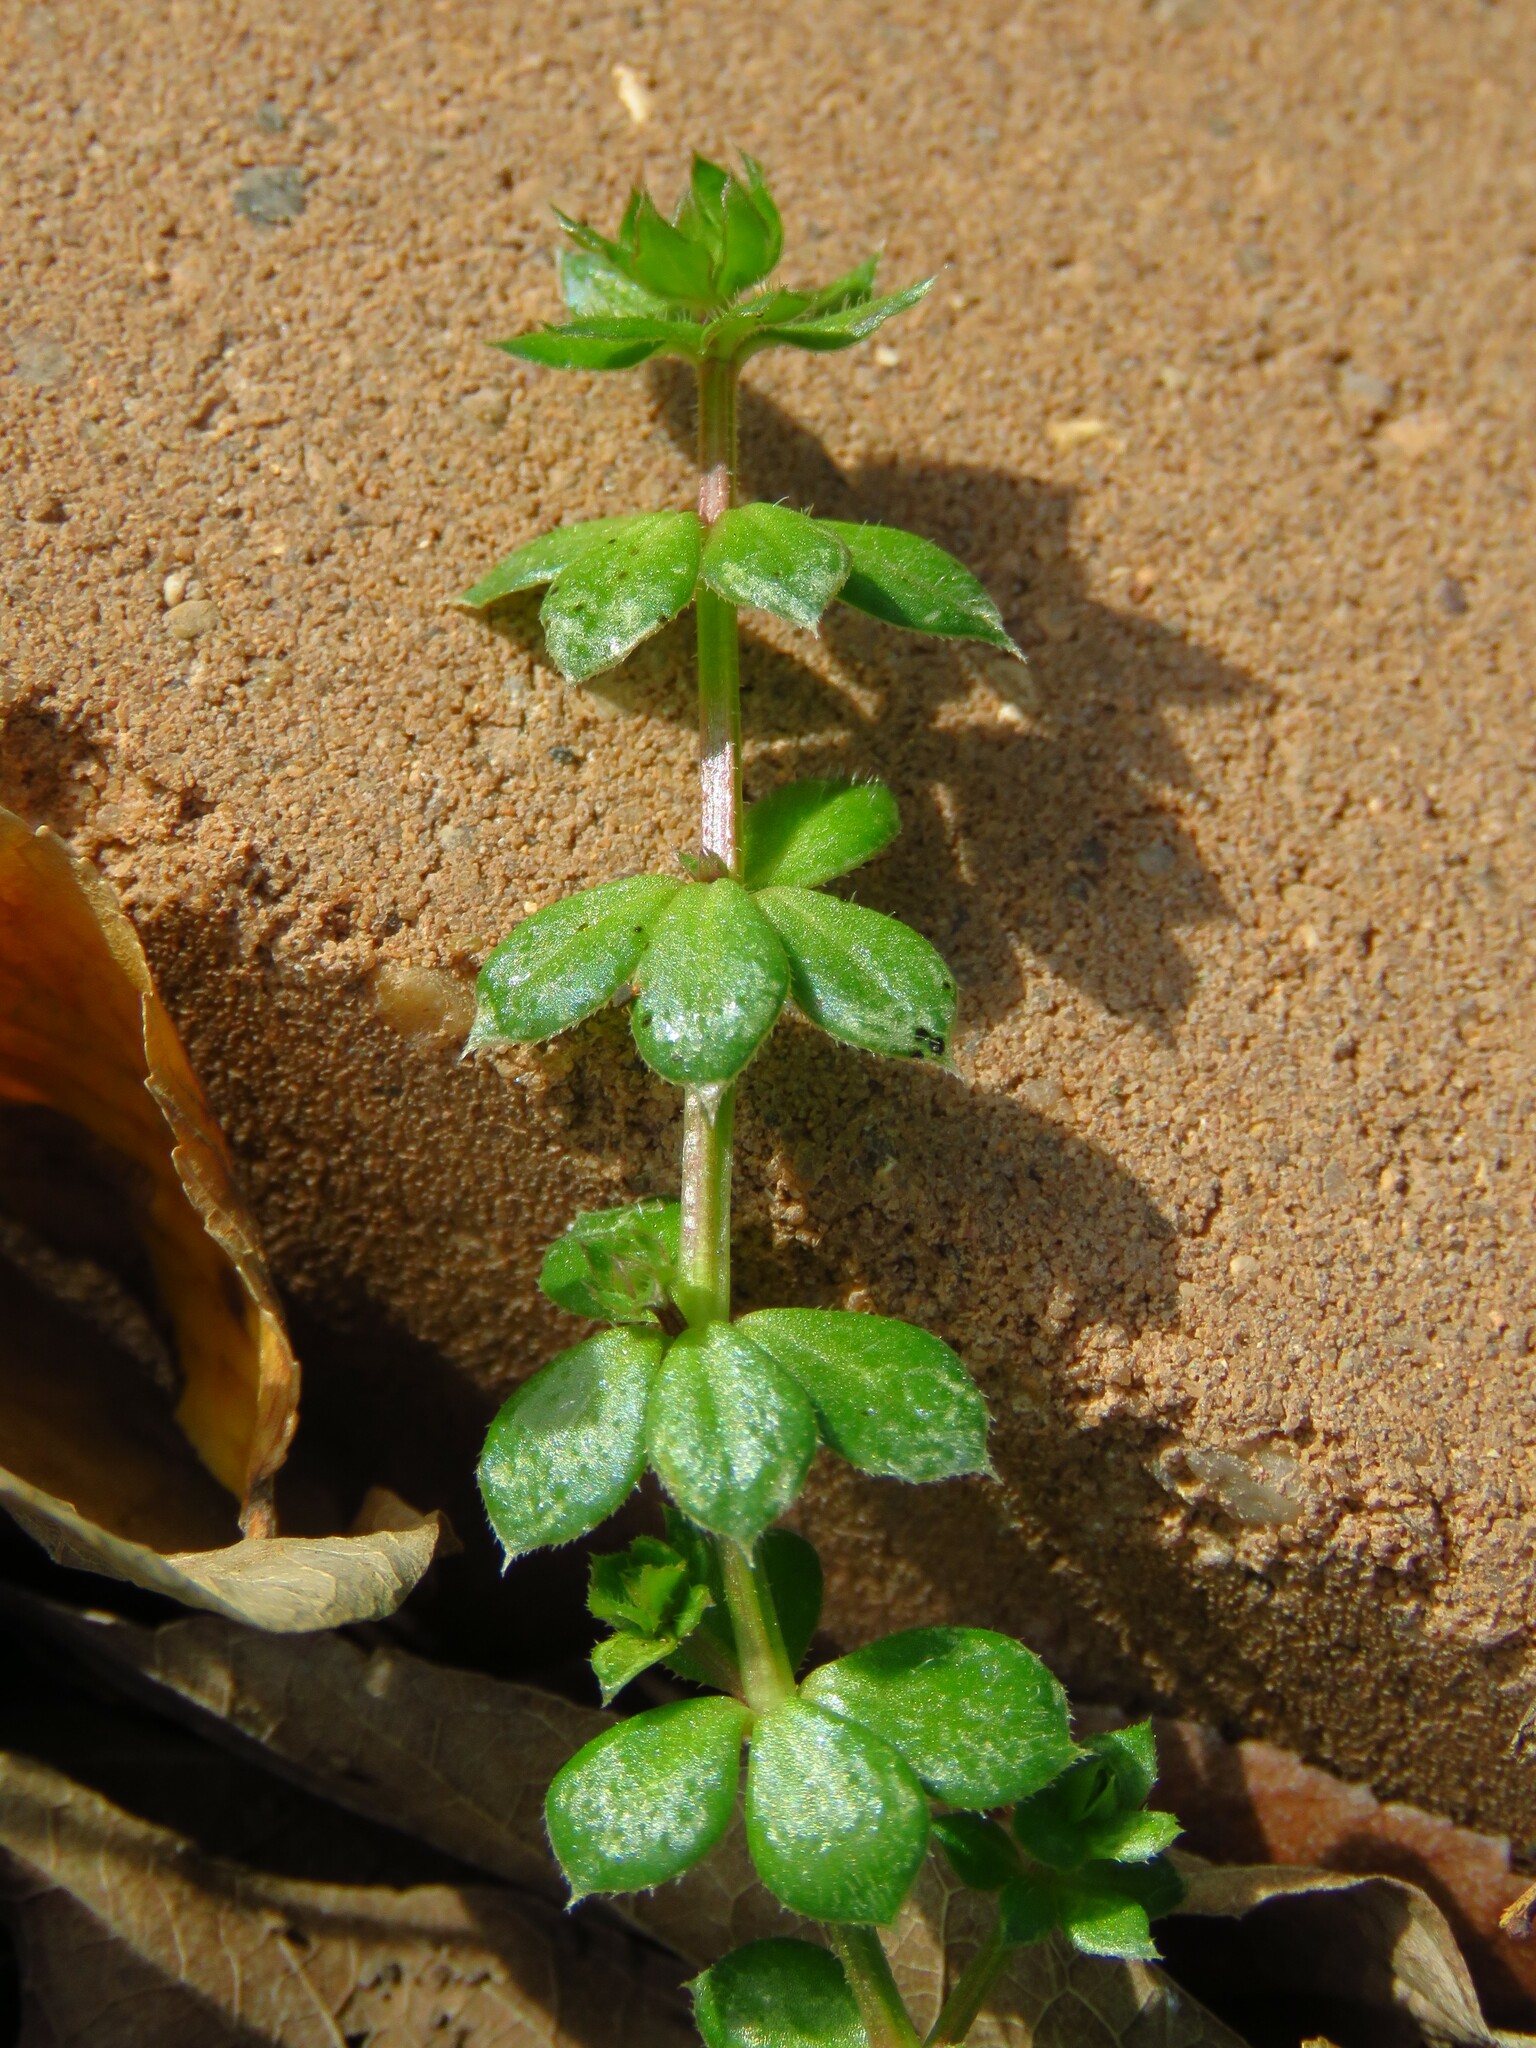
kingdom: Plantae
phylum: Tracheophyta
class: Magnoliopsida
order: Gentianales
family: Rubiaceae
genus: Sherardia
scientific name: Sherardia arvensis
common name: Field madder
